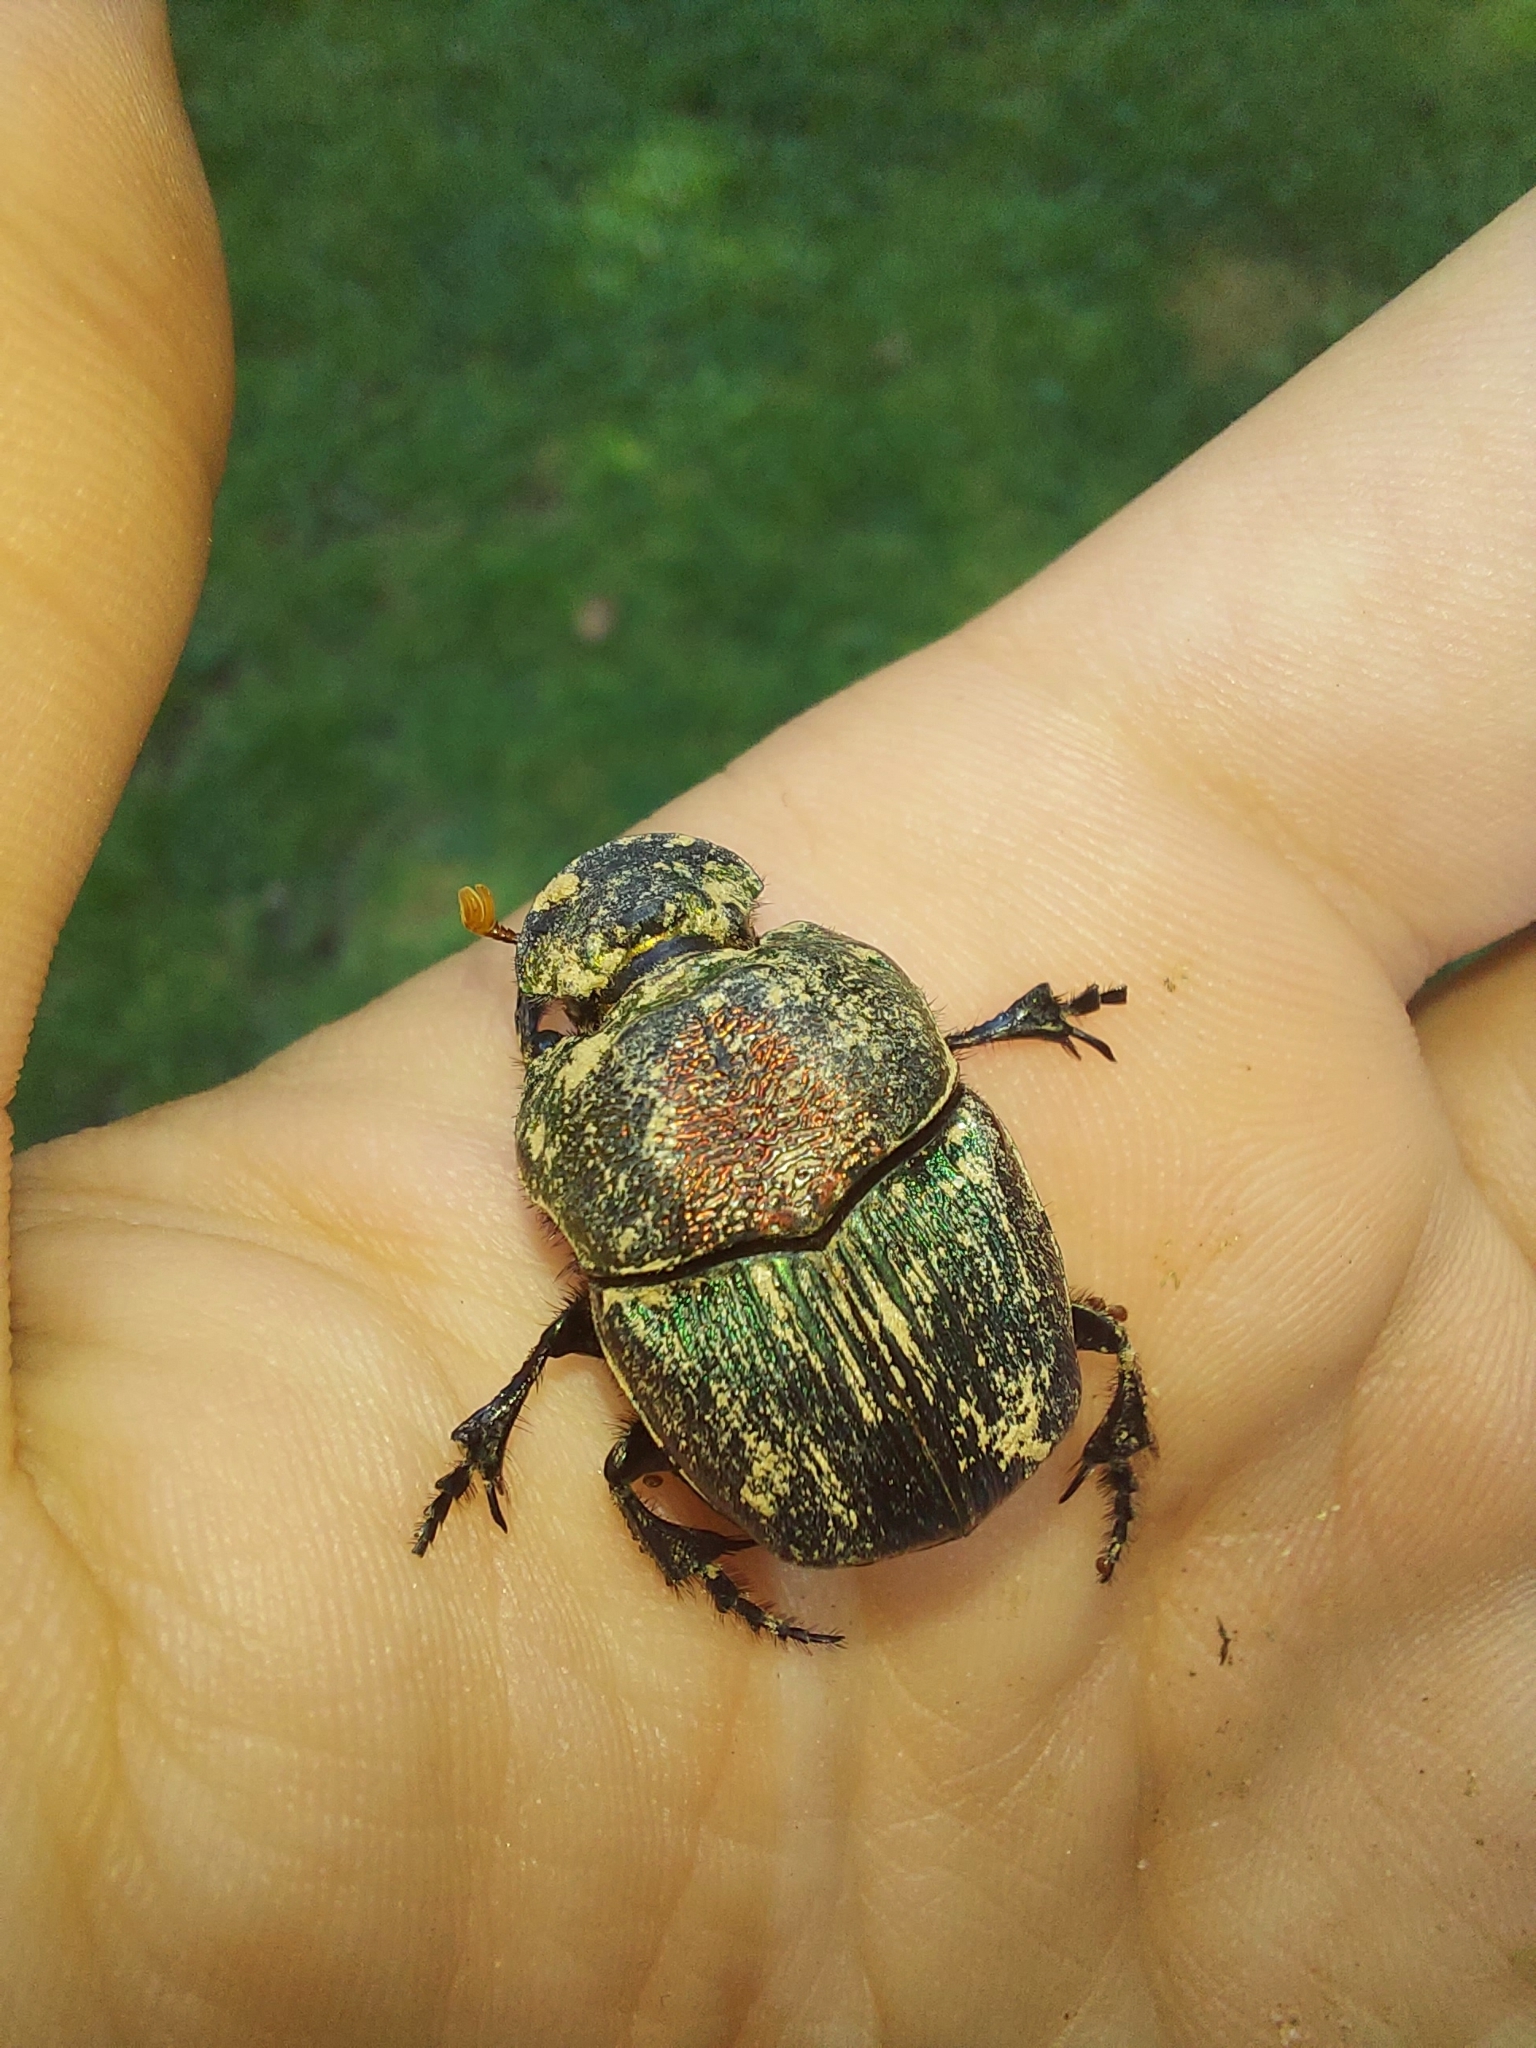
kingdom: Animalia
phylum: Arthropoda
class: Insecta
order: Coleoptera
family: Scarabaeidae
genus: Phanaeus
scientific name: Phanaeus vindex
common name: Rainbow scarab
